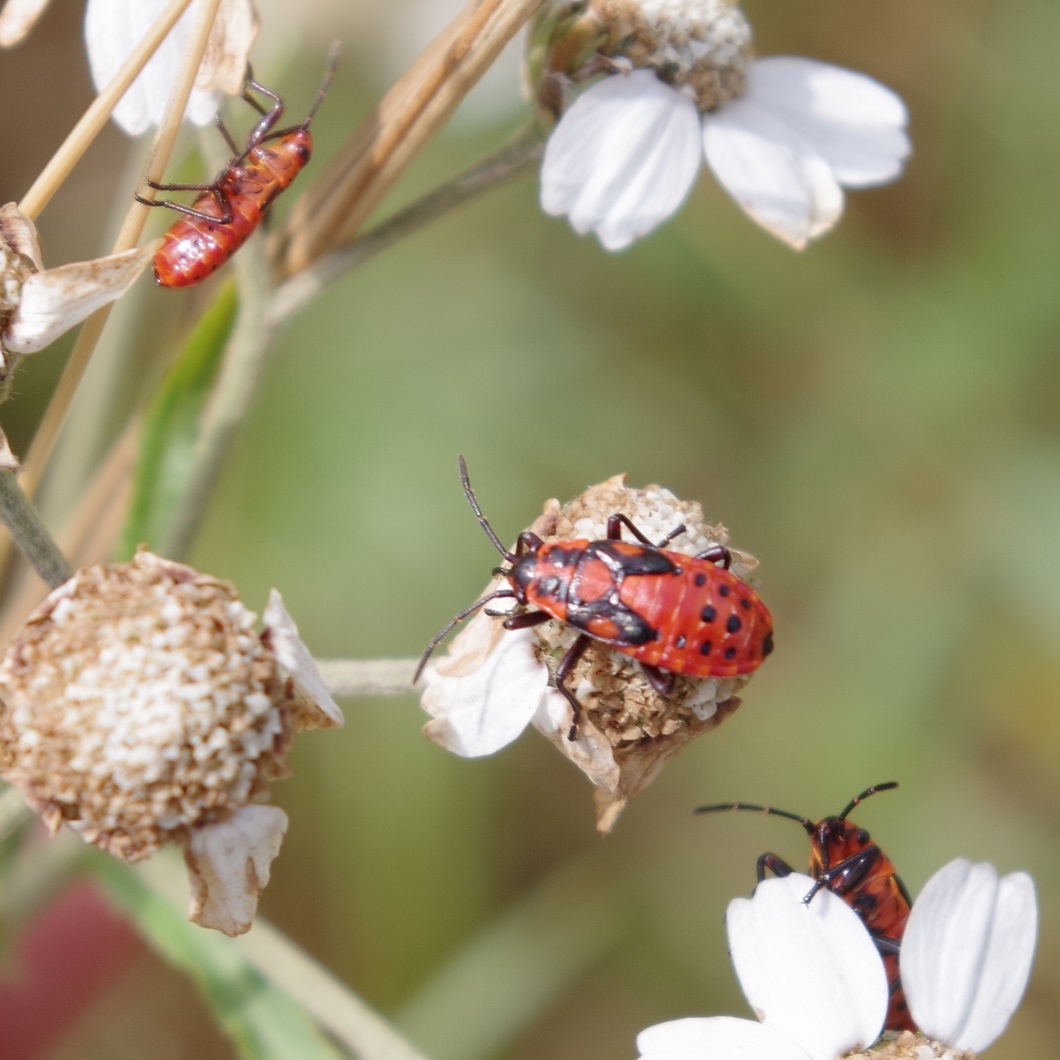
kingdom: Animalia
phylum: Arthropoda
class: Insecta
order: Hemiptera
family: Lygaeidae
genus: Spilostethus
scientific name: Spilostethus saxatilis
